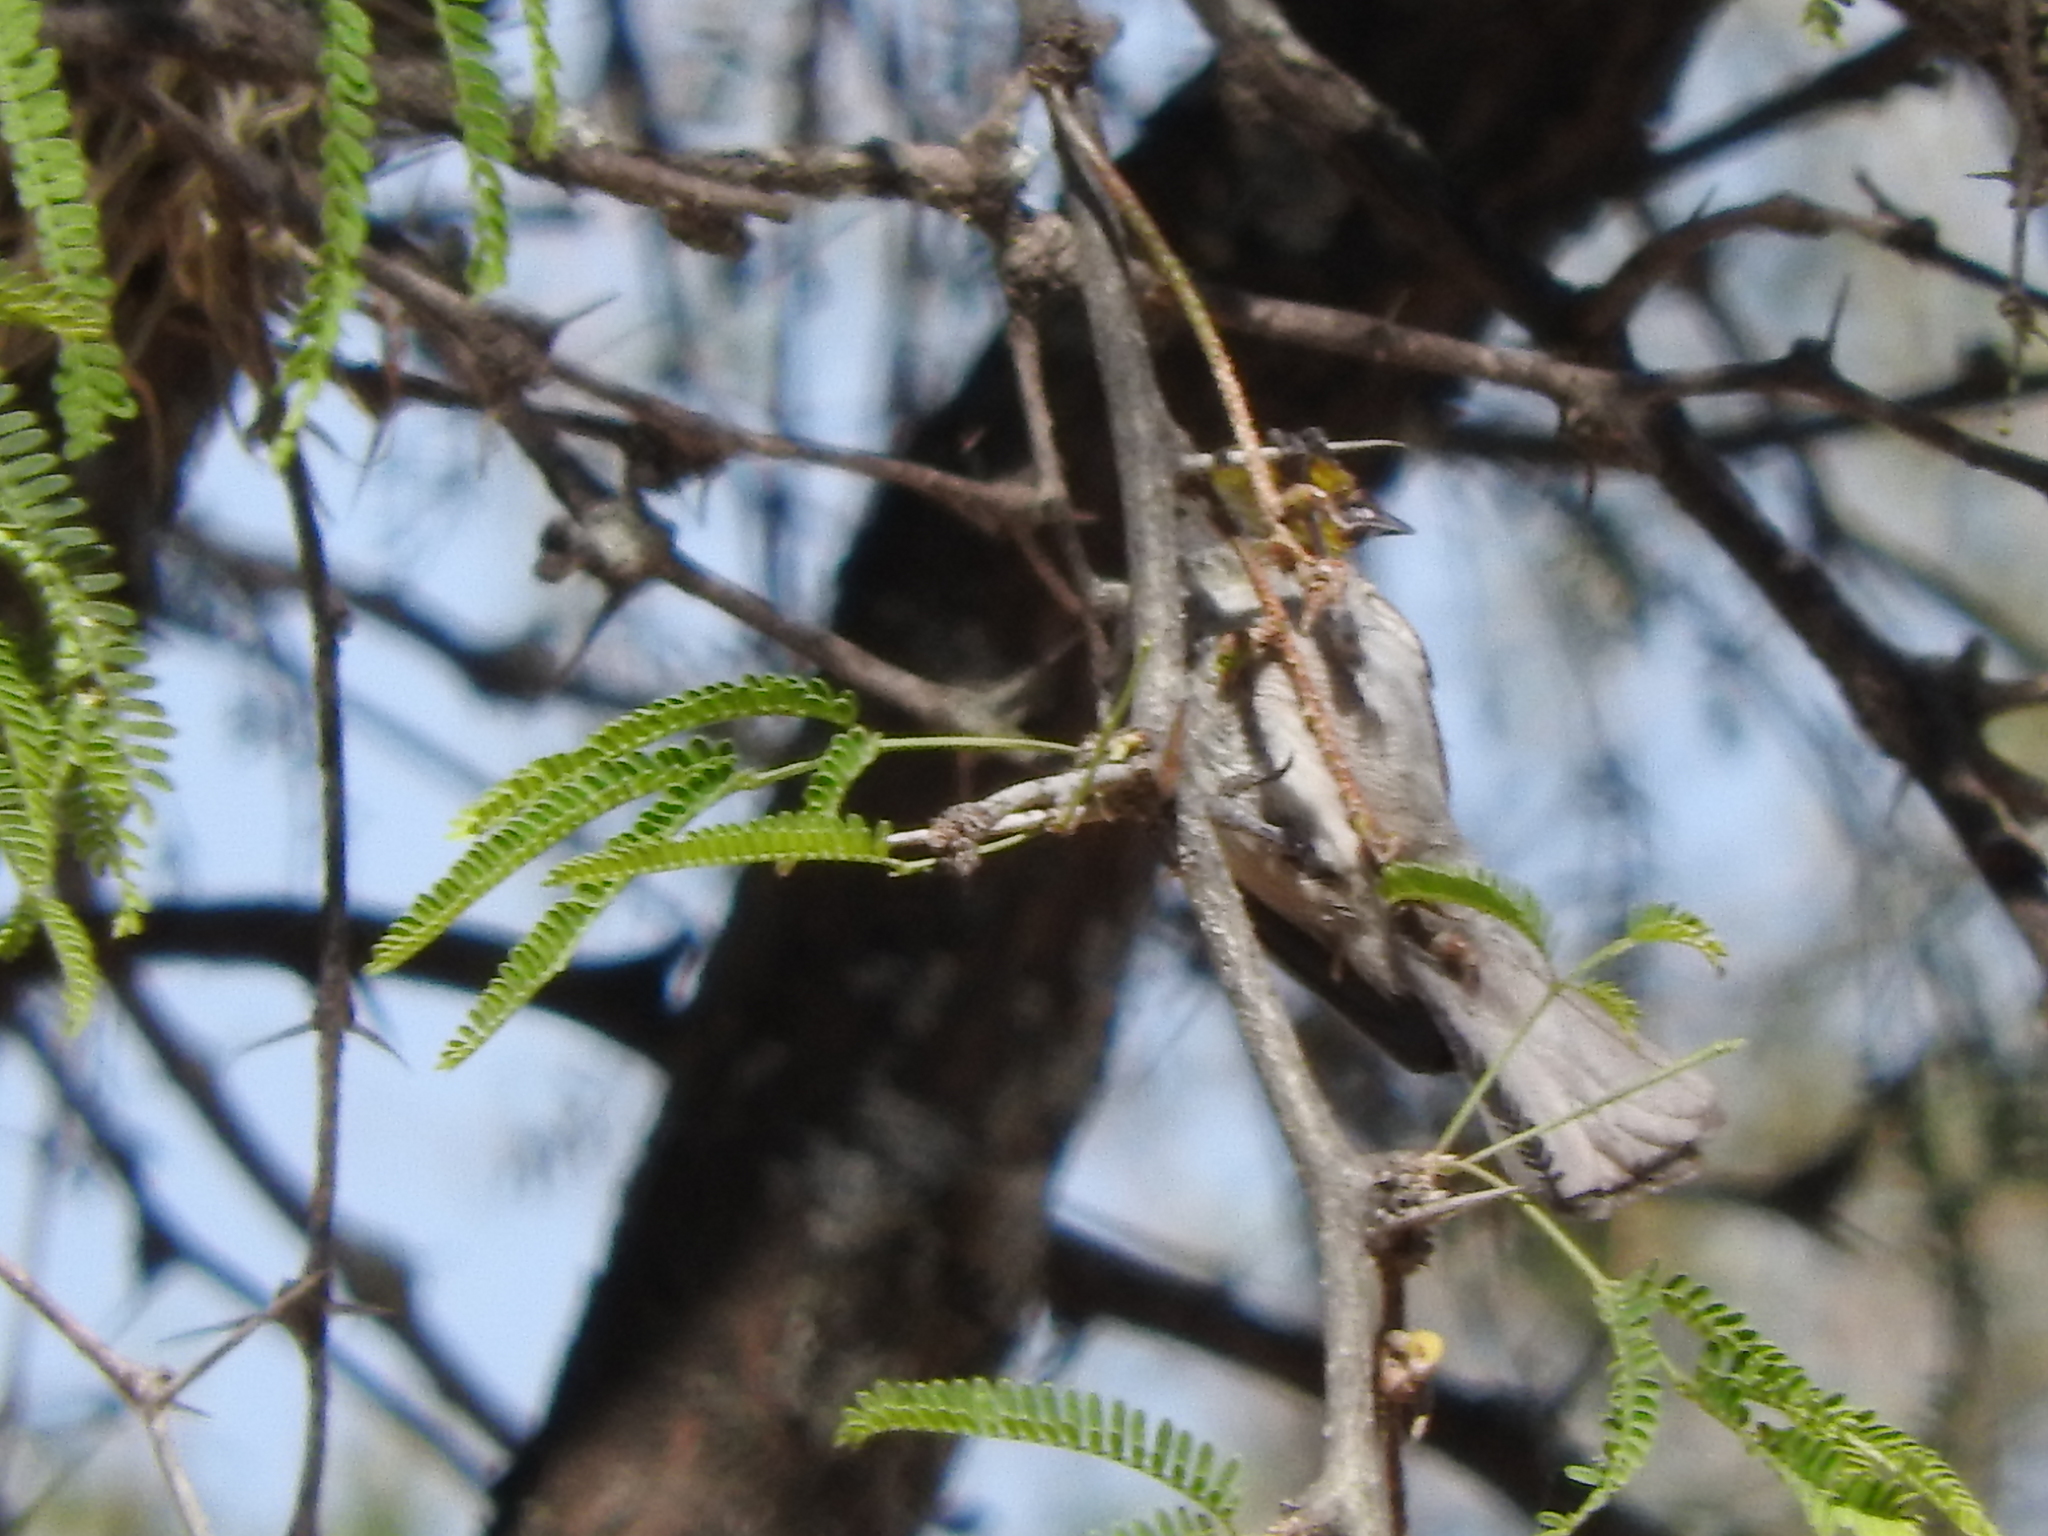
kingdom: Animalia
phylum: Chordata
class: Aves
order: Passeriformes
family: Remizidae
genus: Auriparus
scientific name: Auriparus flaviceps
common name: Verdin
